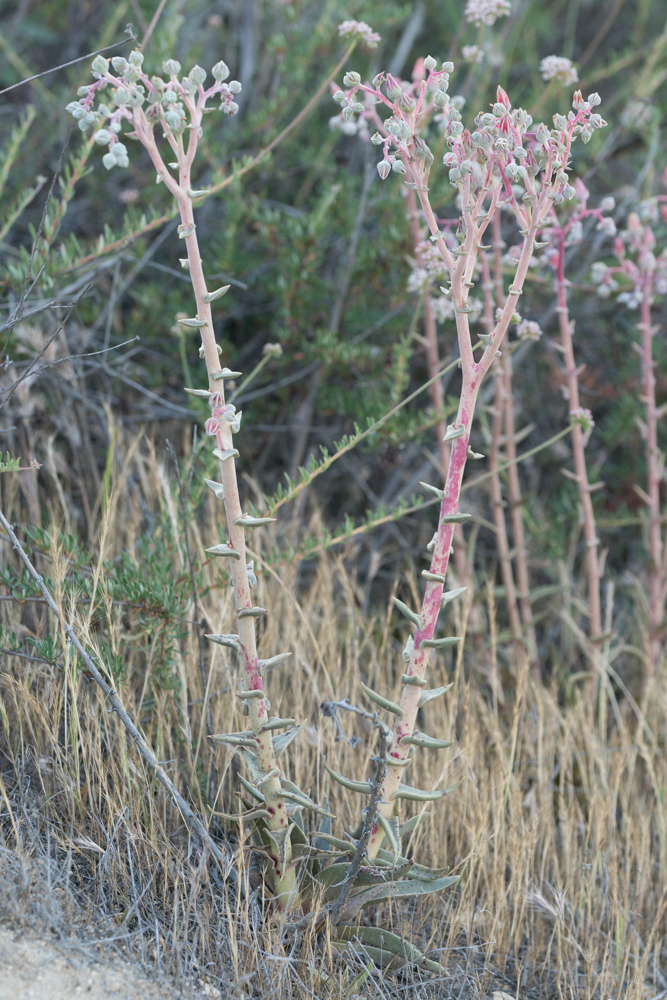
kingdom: Plantae
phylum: Tracheophyta
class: Magnoliopsida
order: Saxifragales
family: Crassulaceae
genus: Dudleya
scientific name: Dudleya lanceolata
